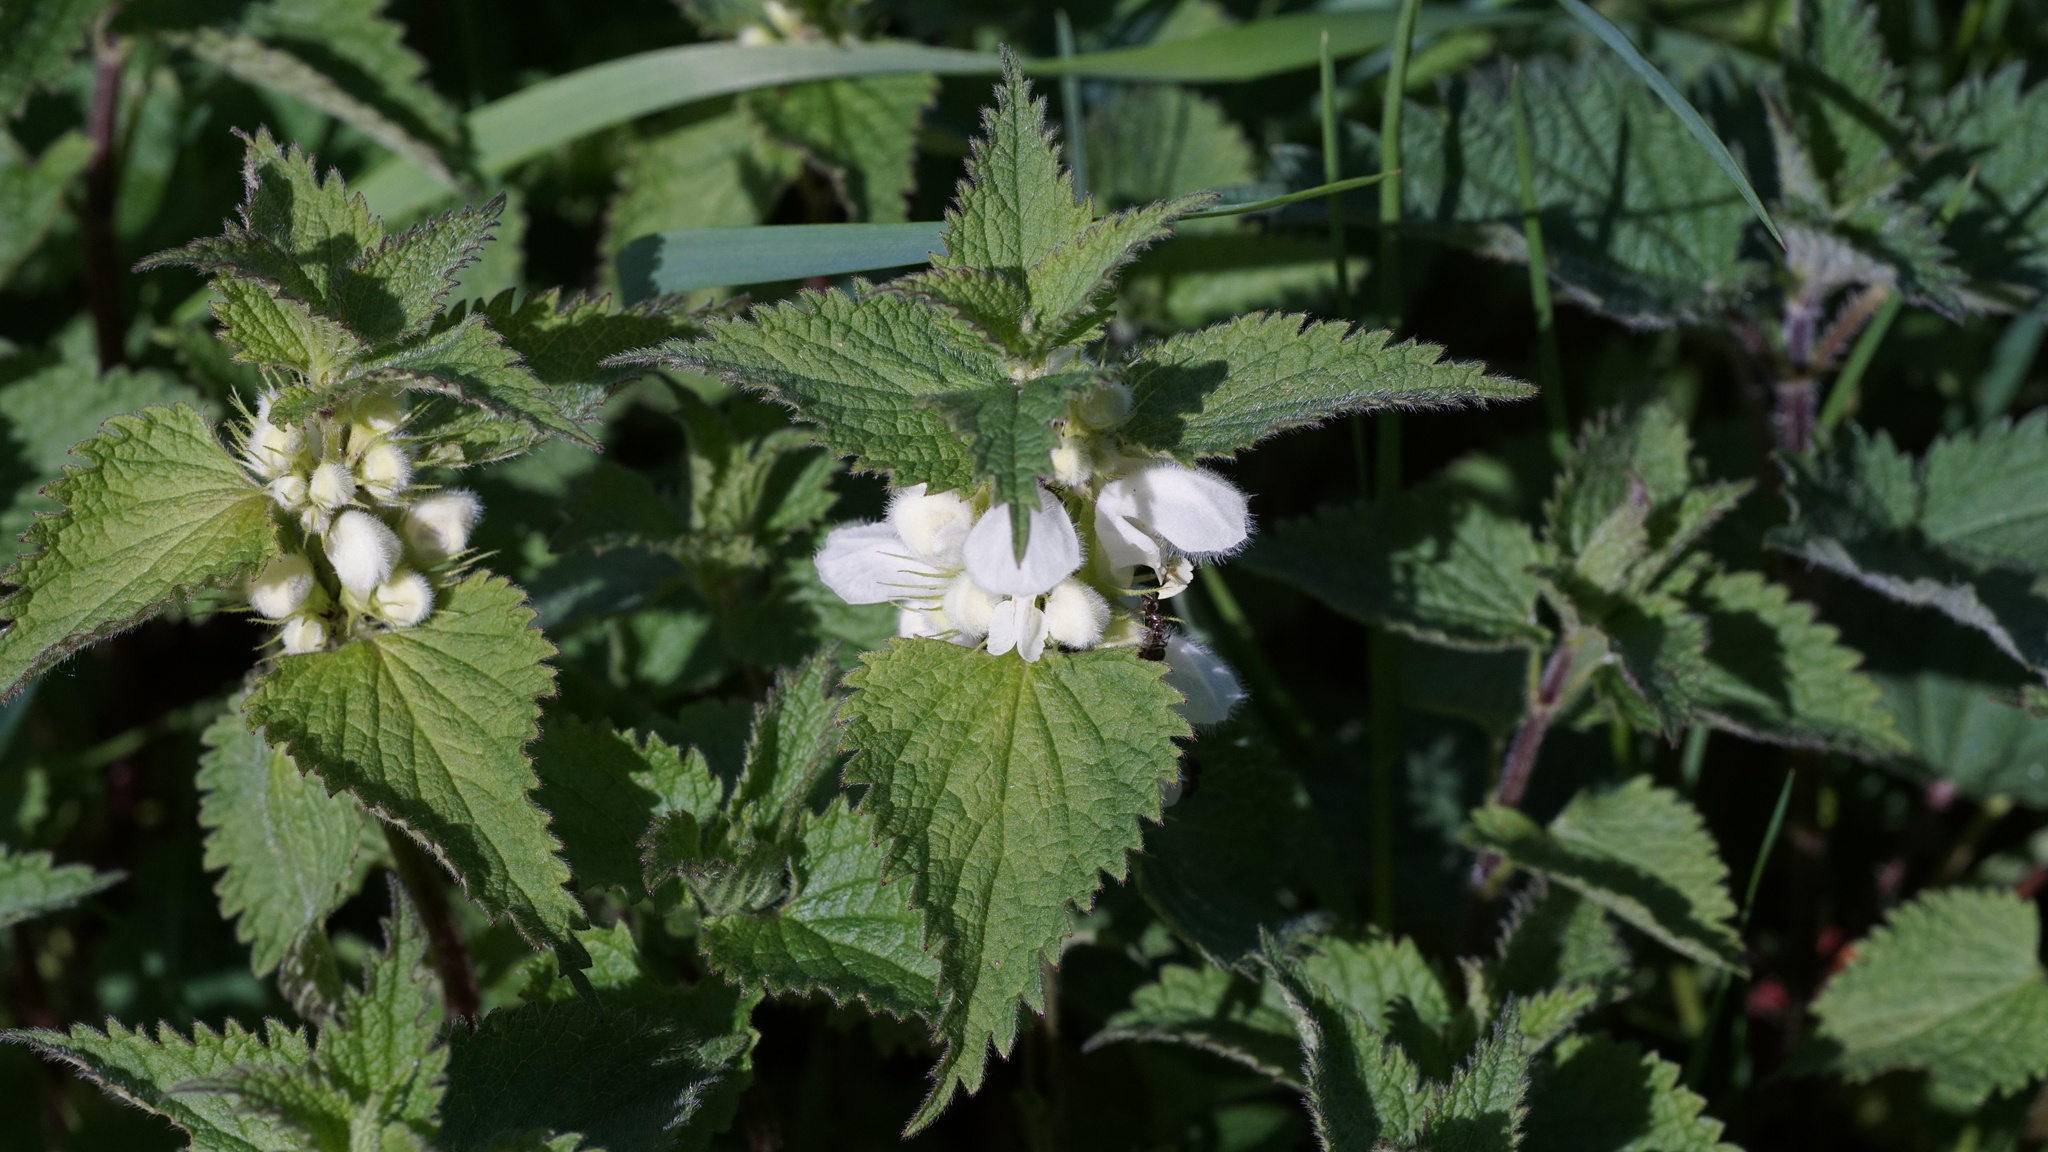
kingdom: Plantae
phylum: Tracheophyta
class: Magnoliopsida
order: Lamiales
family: Lamiaceae
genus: Lamium
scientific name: Lamium album
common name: White dead-nettle
